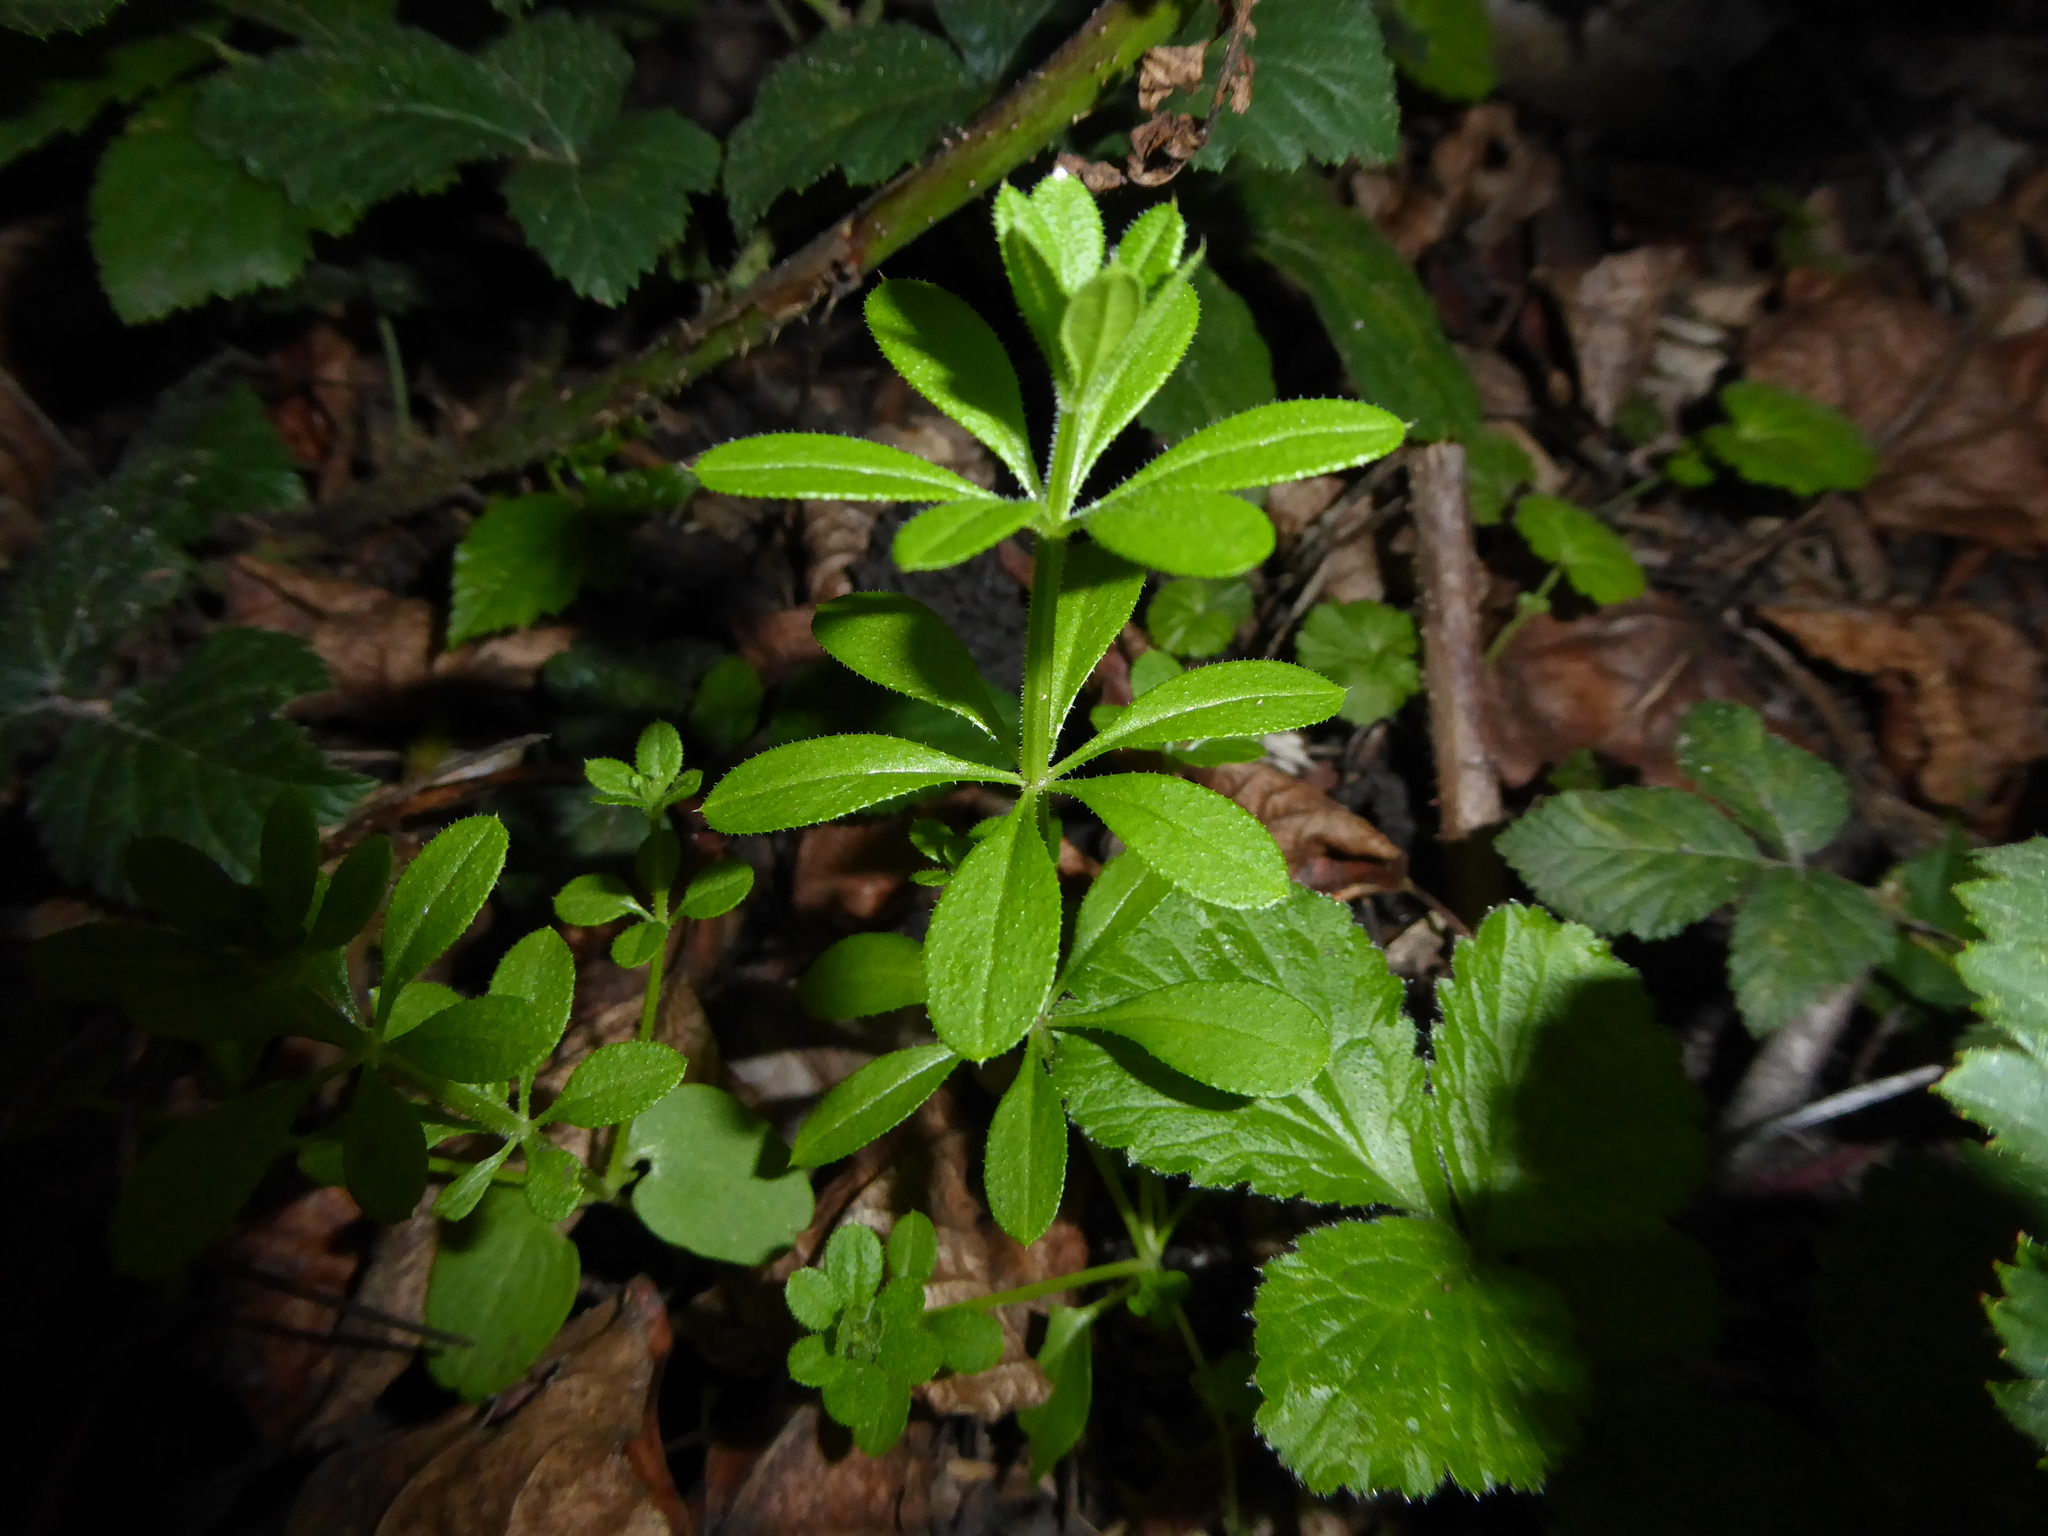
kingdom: Plantae
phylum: Tracheophyta
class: Magnoliopsida
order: Gentianales
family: Rubiaceae
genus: Galium
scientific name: Galium aparine
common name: Cleavers
